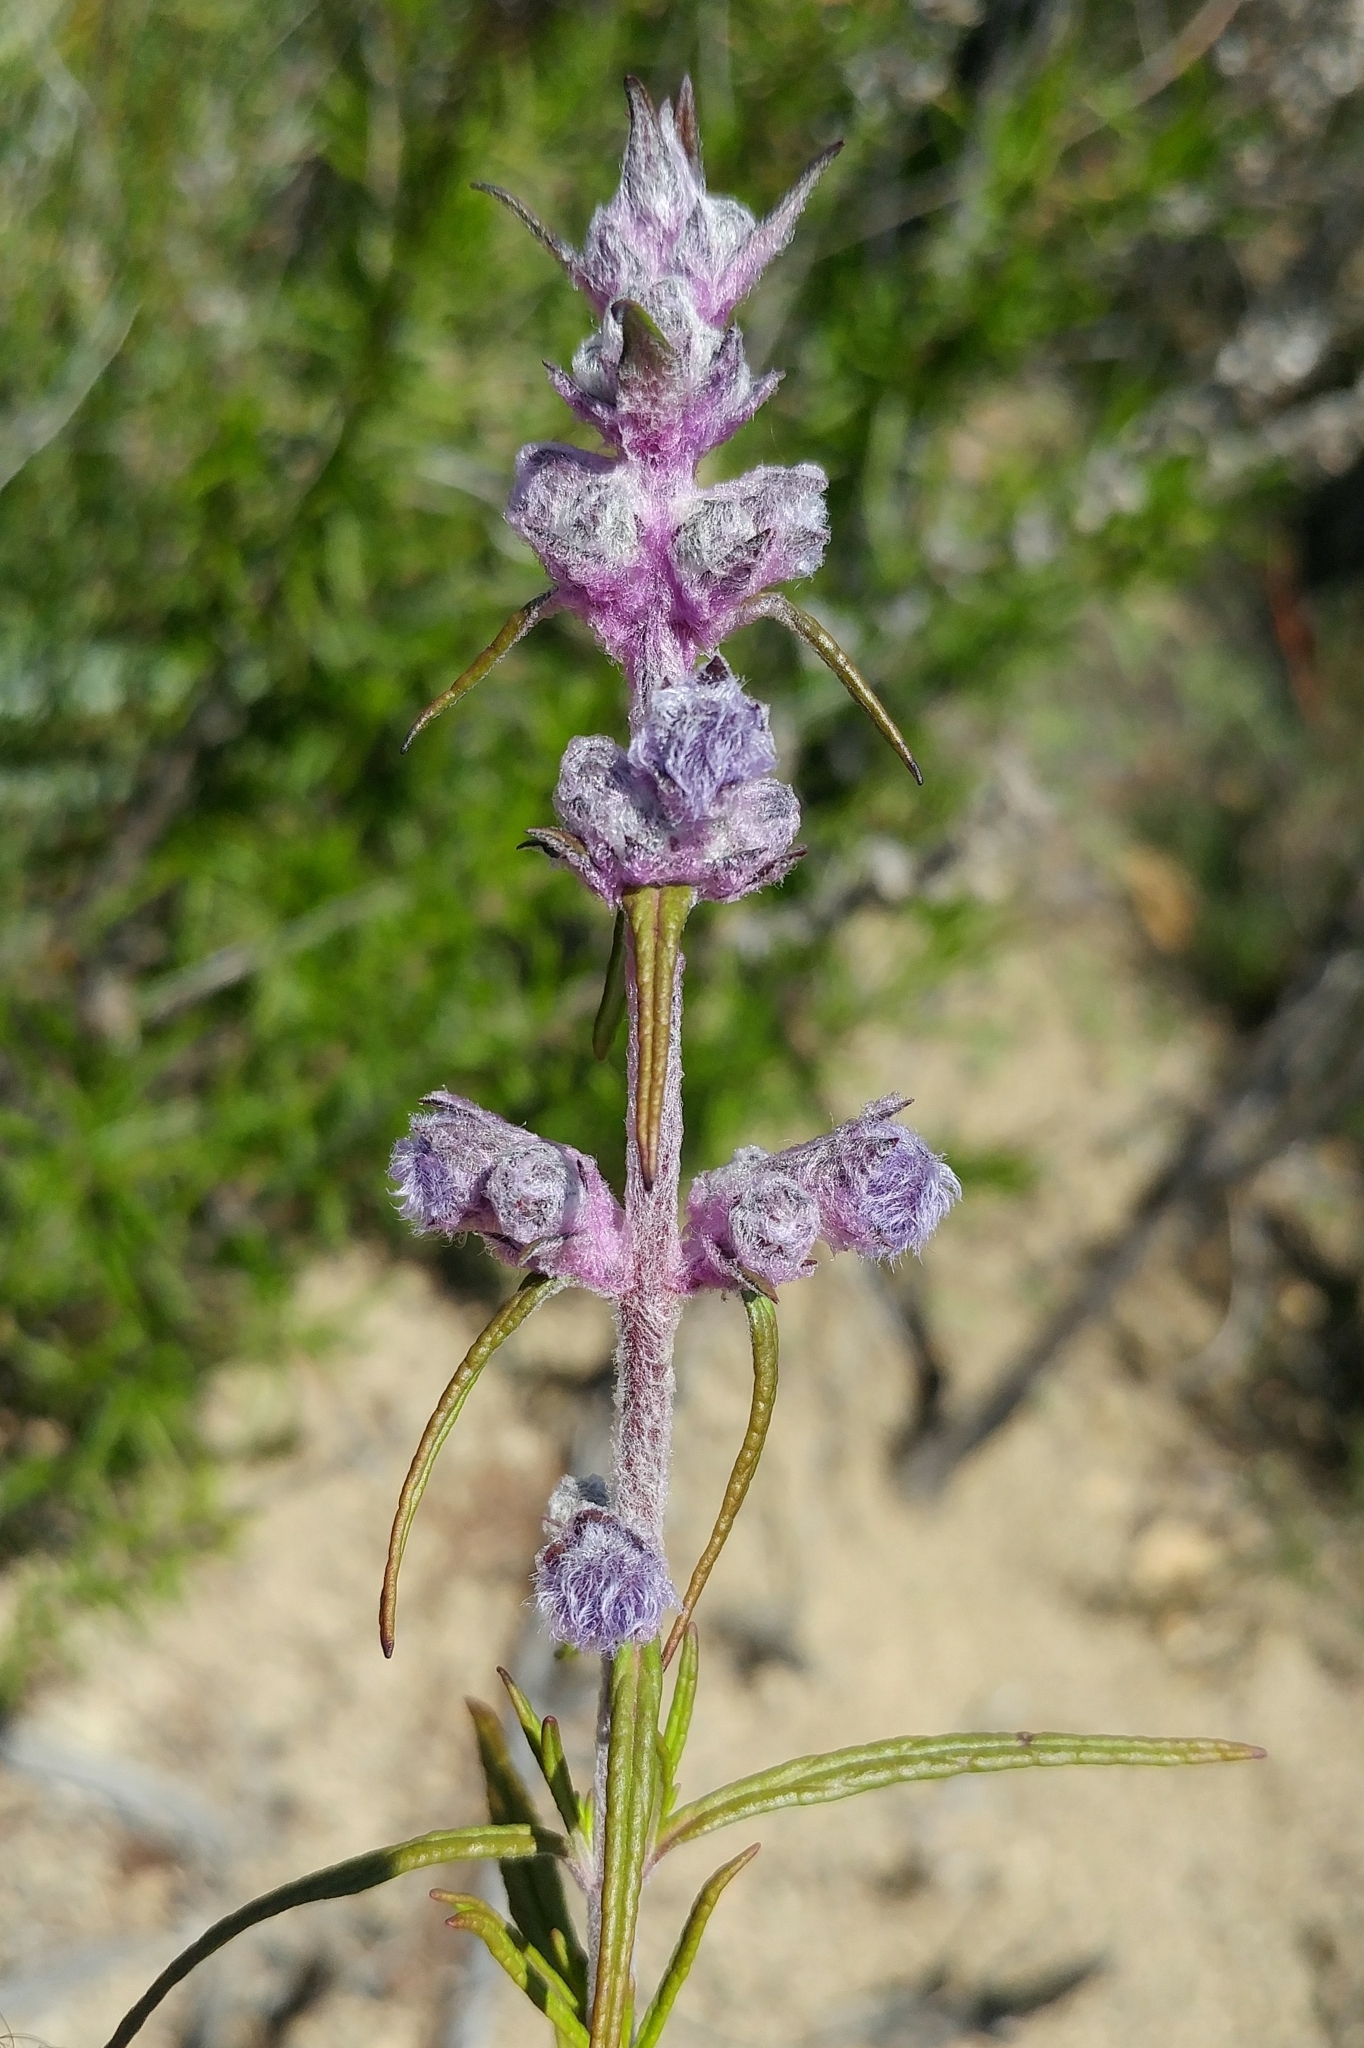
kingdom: Plantae
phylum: Tracheophyta
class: Magnoliopsida
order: Lamiales
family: Lamiaceae
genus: Trichostema
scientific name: Trichostema lanatum
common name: Woolly bluecurls
